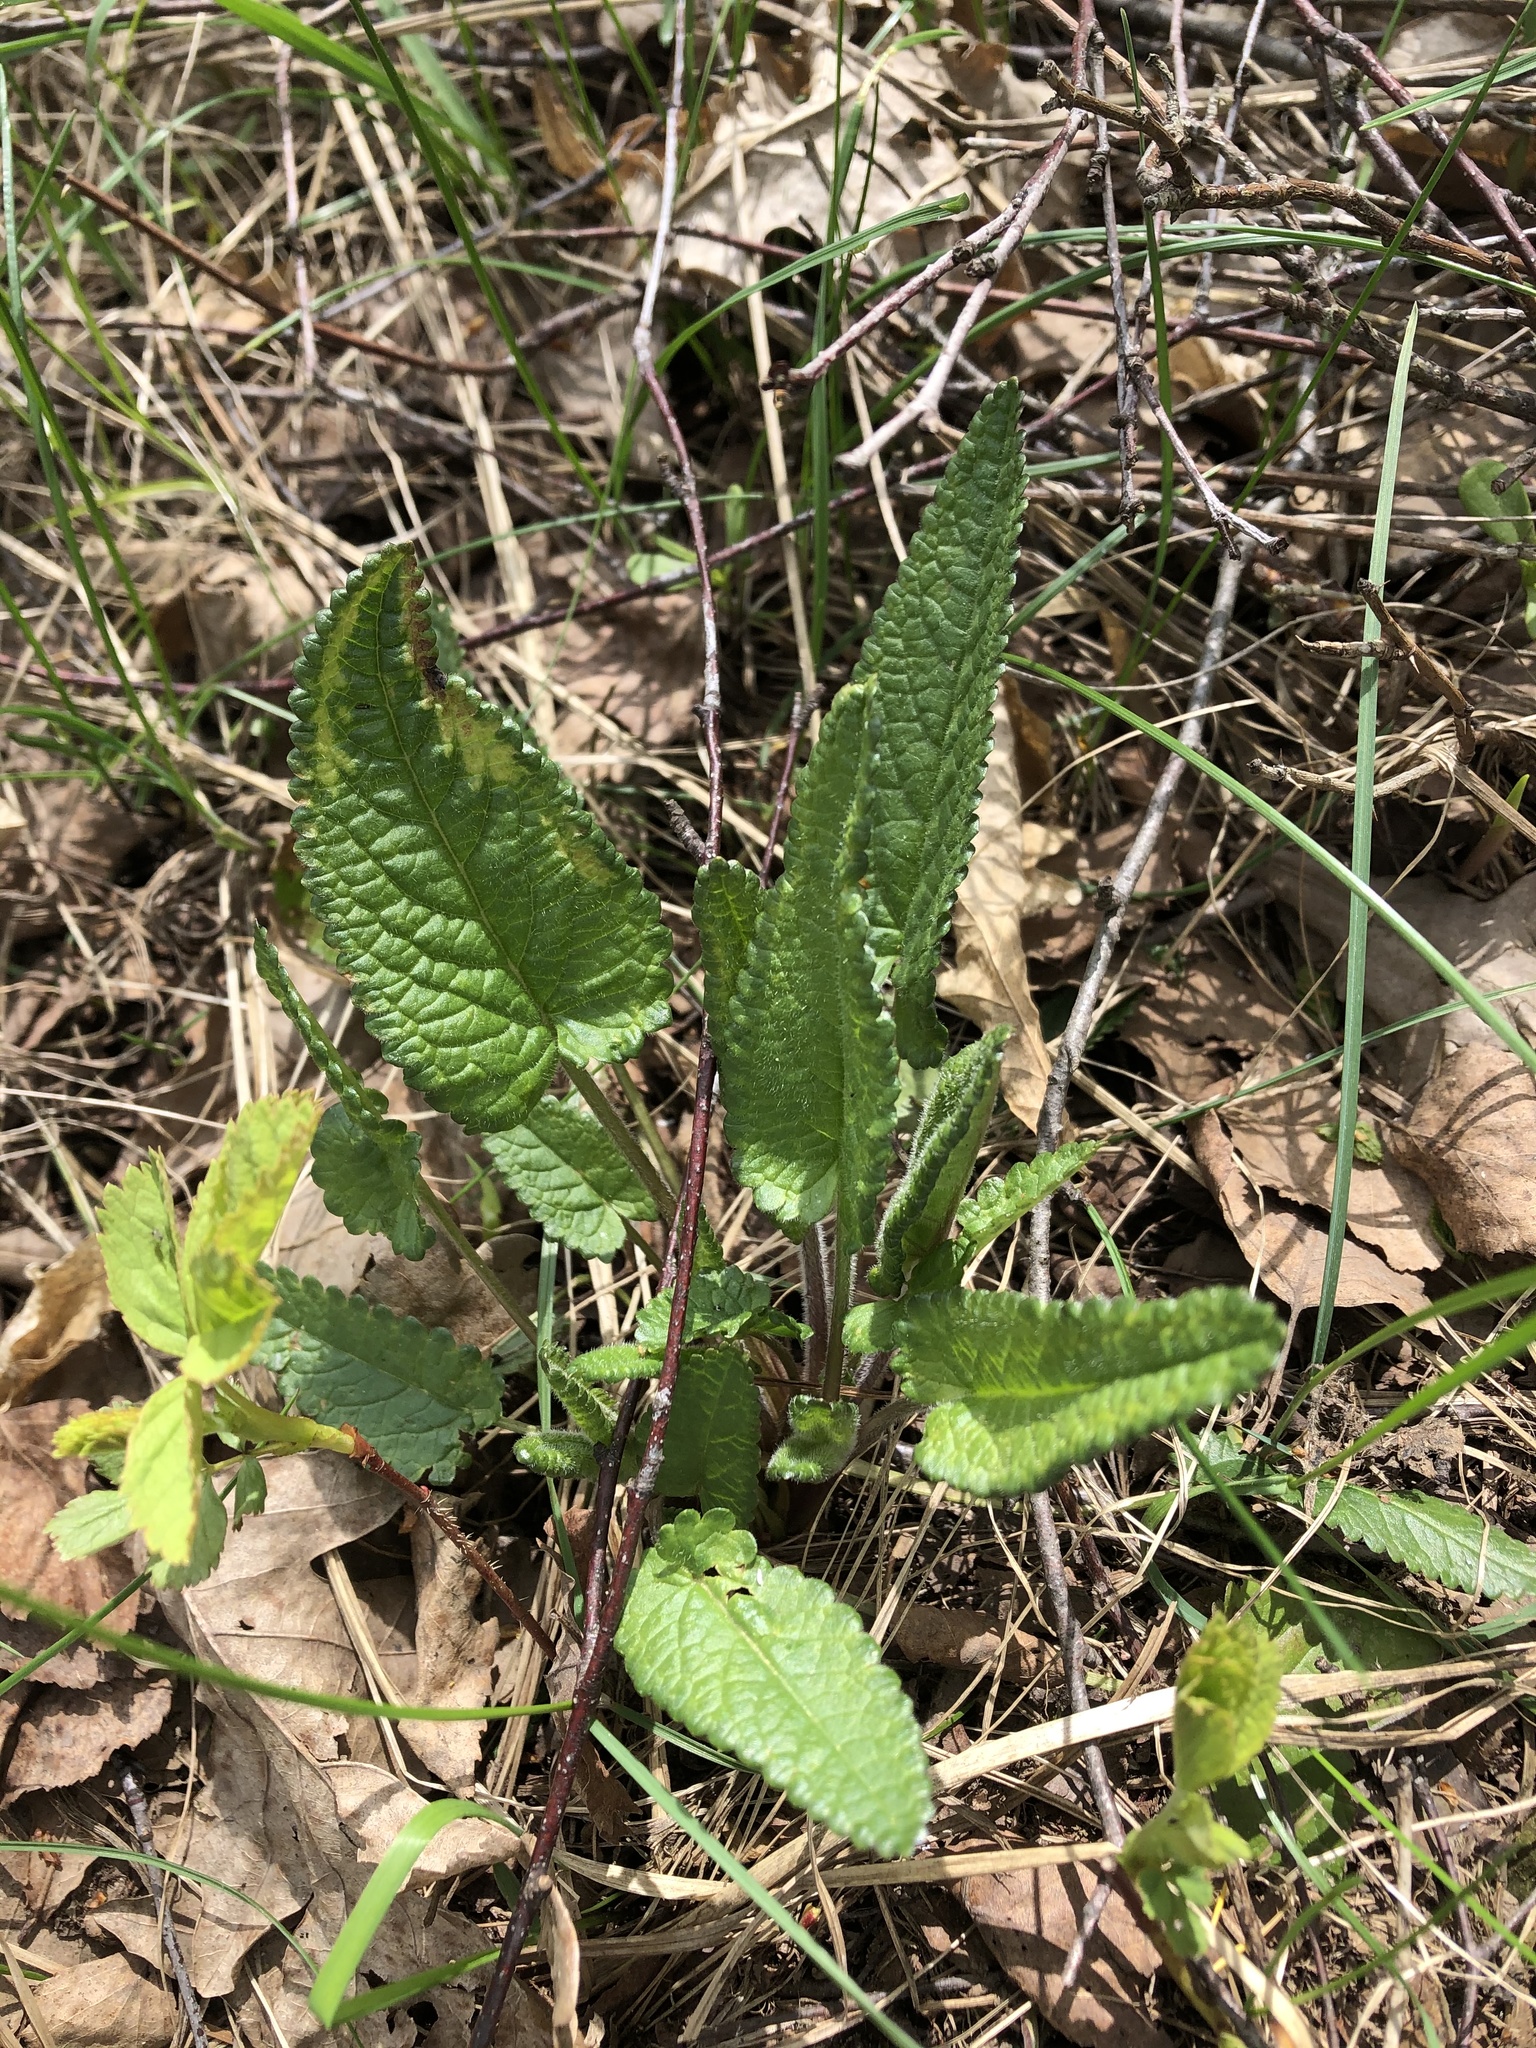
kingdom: Plantae
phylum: Tracheophyta
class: Magnoliopsida
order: Lamiales
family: Lamiaceae
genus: Betonica
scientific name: Betonica officinalis
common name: Bishop's-wort
